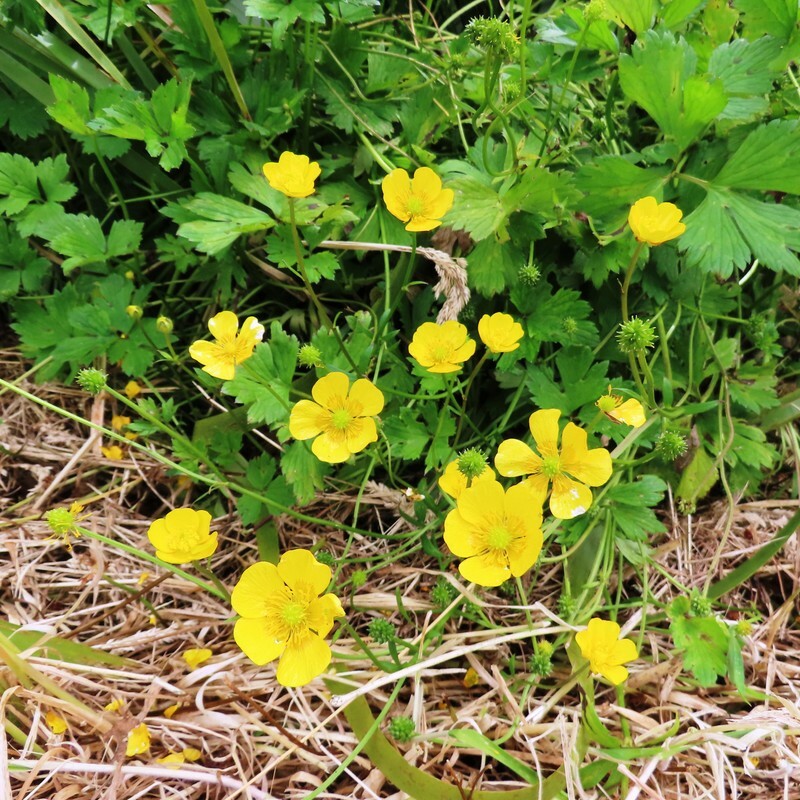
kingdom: Plantae
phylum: Tracheophyta
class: Magnoliopsida
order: Ranunculales
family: Ranunculaceae
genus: Ranunculus
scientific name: Ranunculus repens
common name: Creeping buttercup
